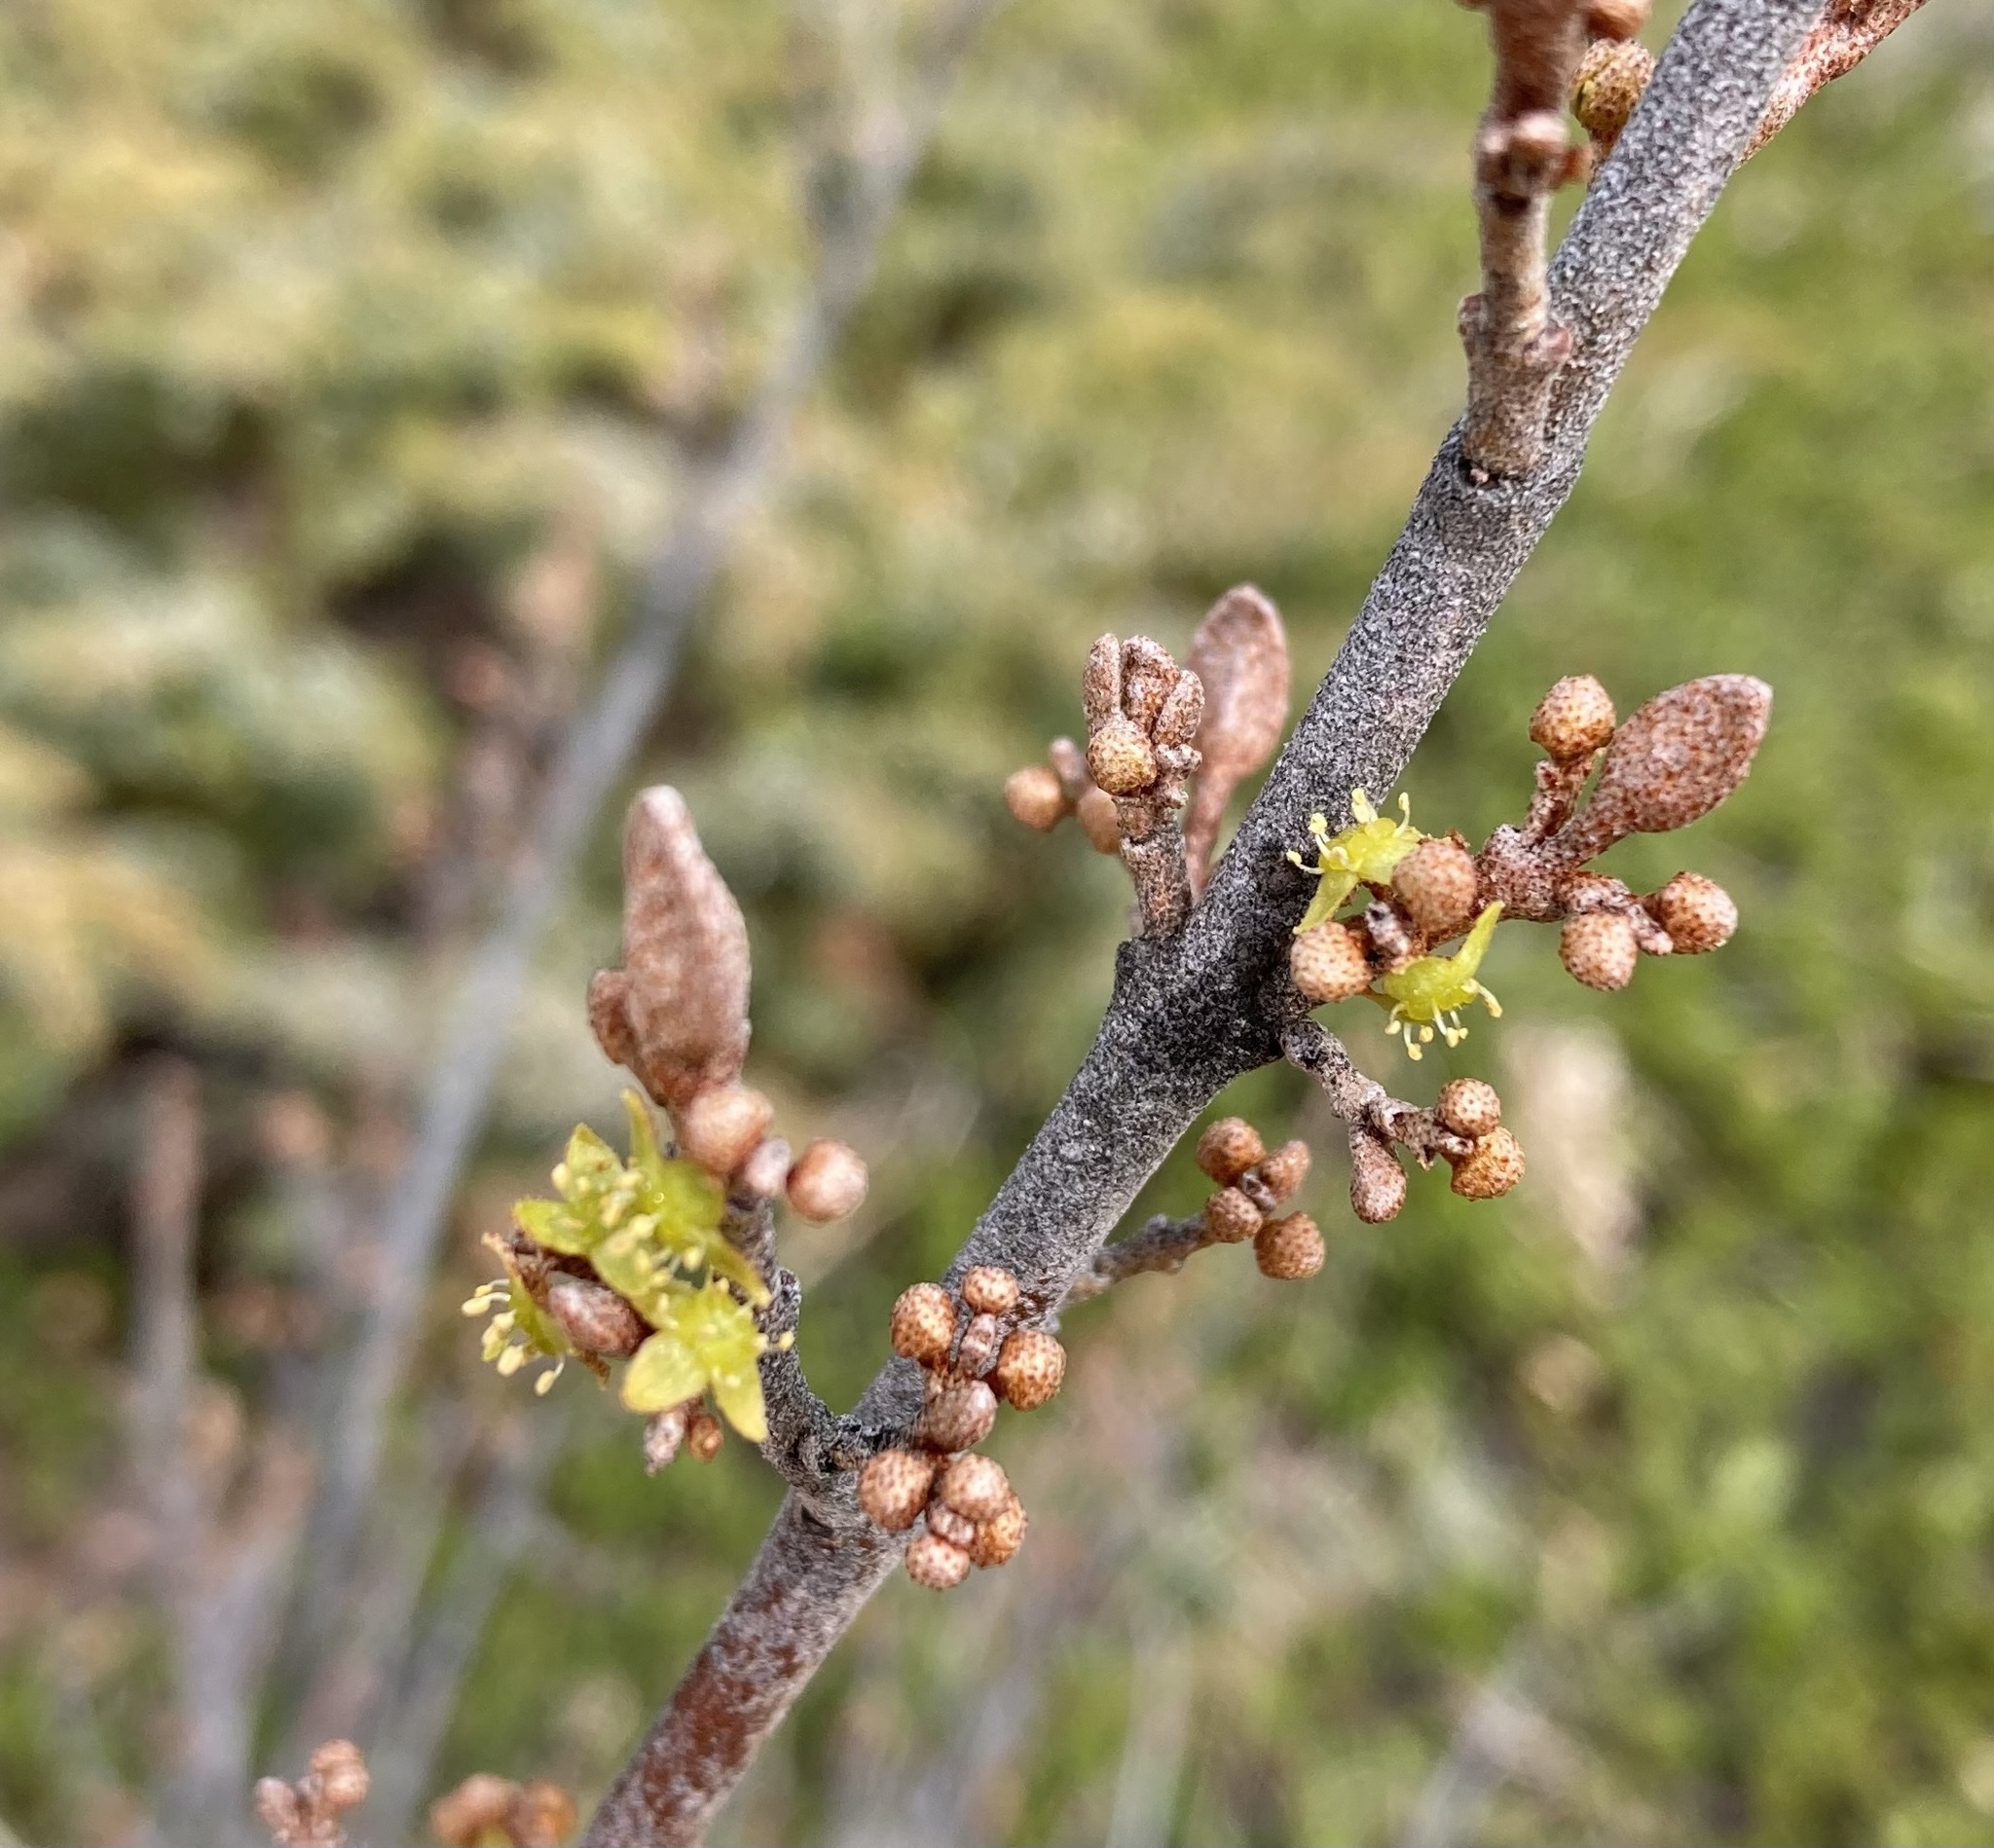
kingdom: Plantae
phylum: Tracheophyta
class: Magnoliopsida
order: Rosales
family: Elaeagnaceae
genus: Shepherdia
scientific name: Shepherdia canadensis
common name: Soapberry
